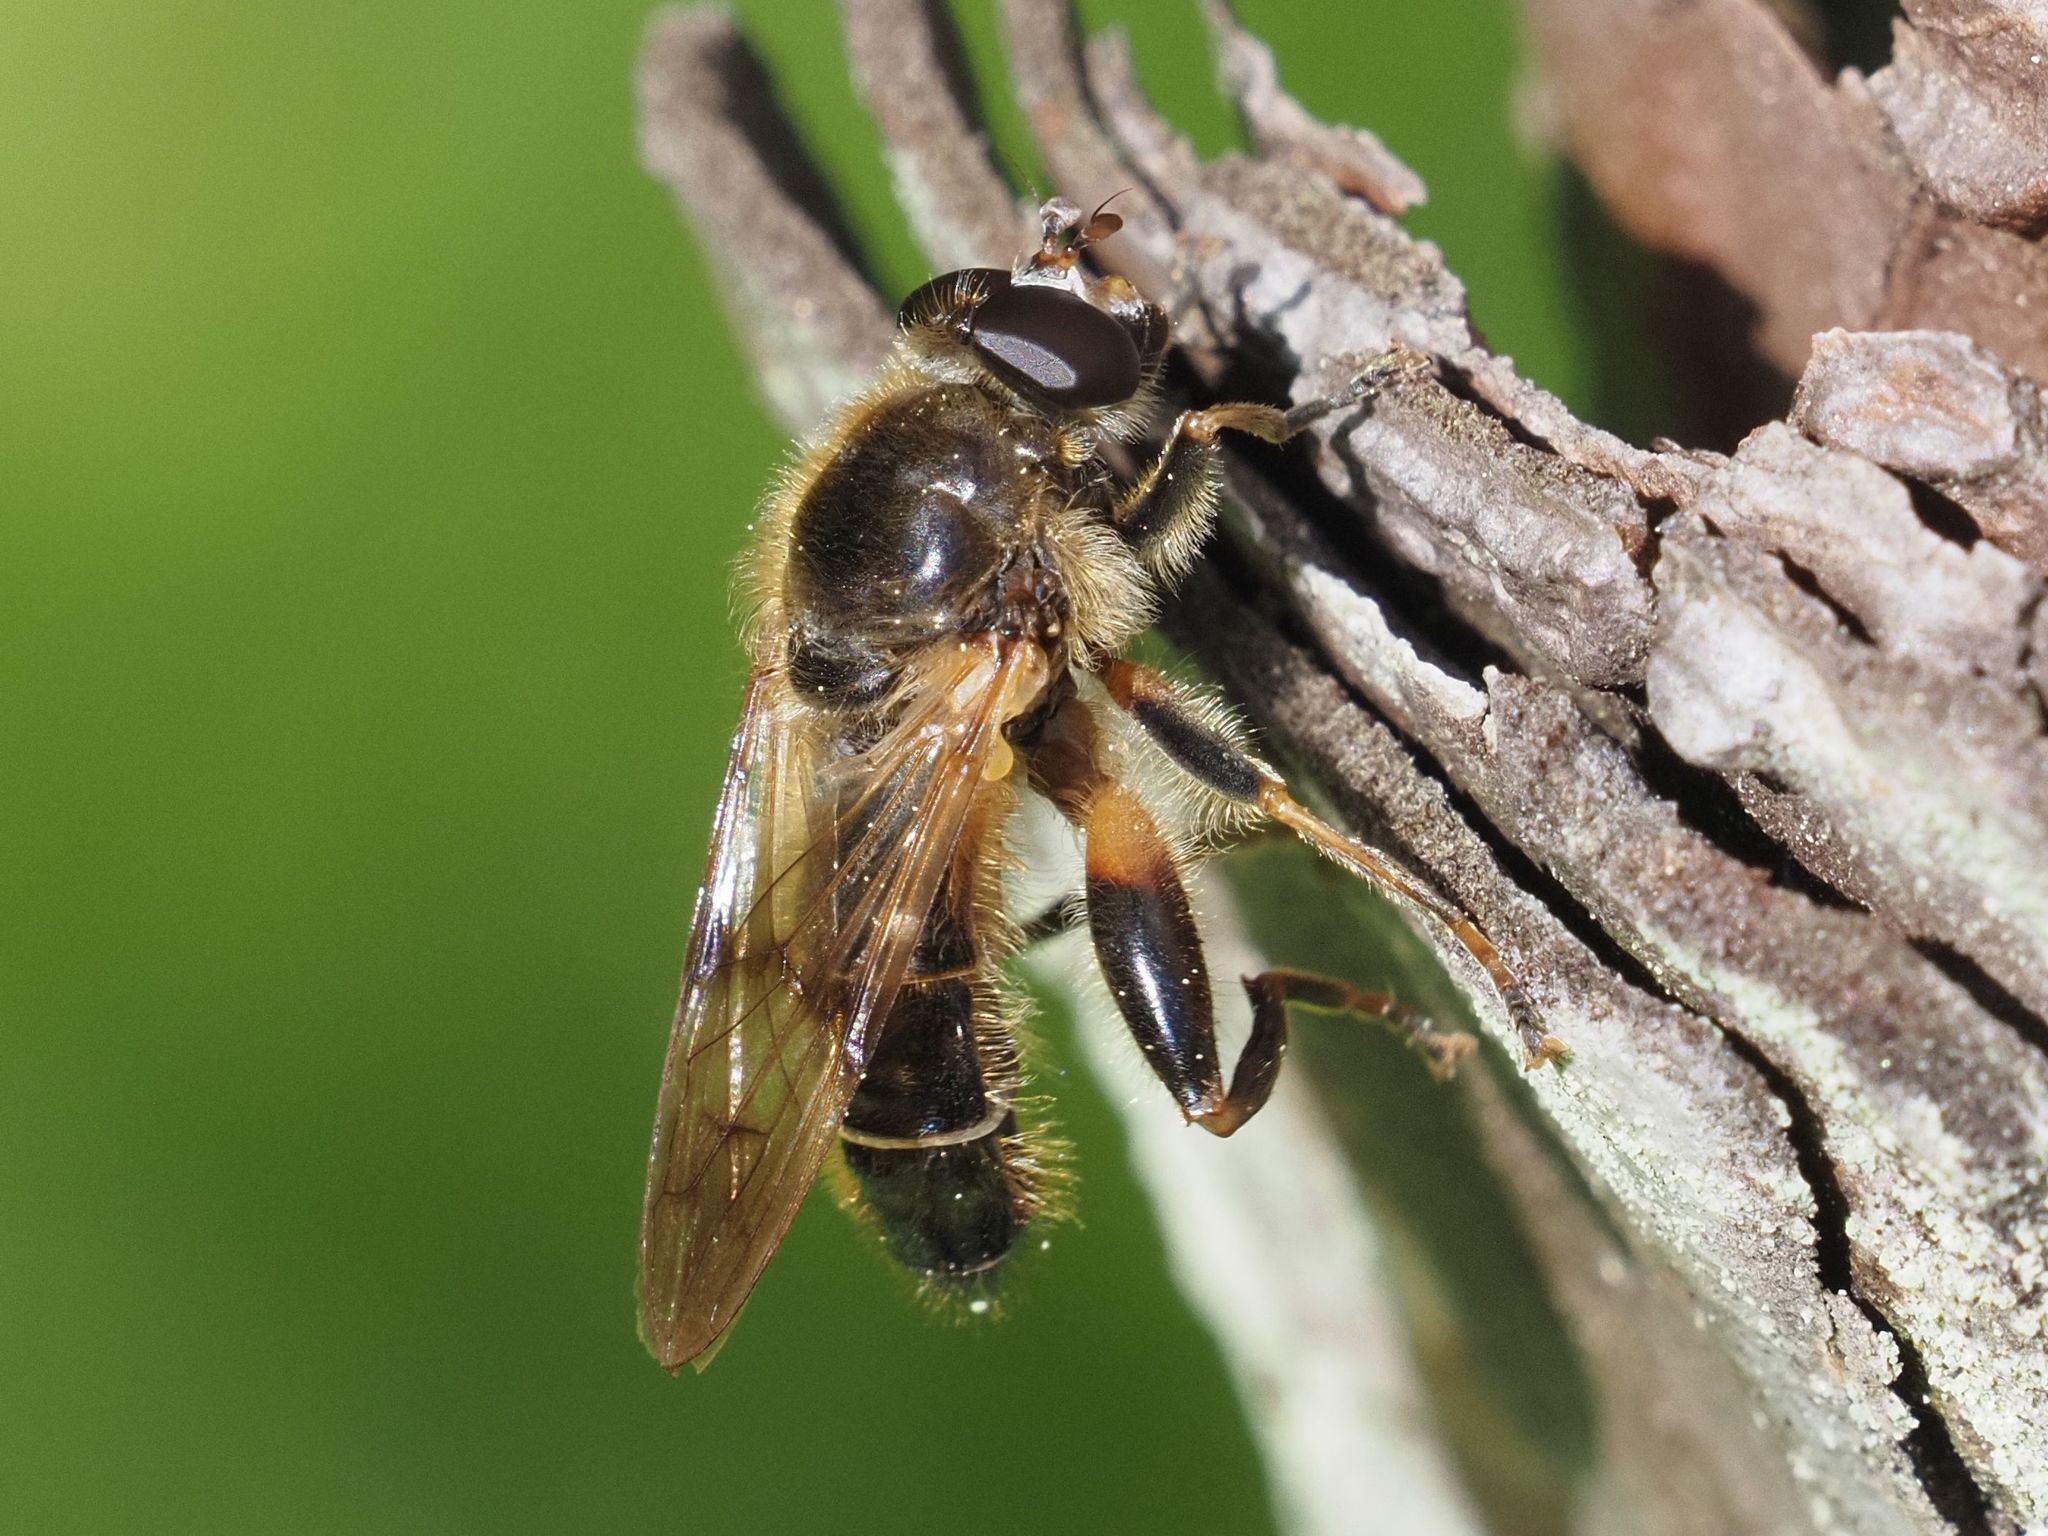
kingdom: Animalia
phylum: Arthropoda
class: Insecta
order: Diptera
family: Syrphidae
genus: Brachypalpus
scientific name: Brachypalpus valgus
